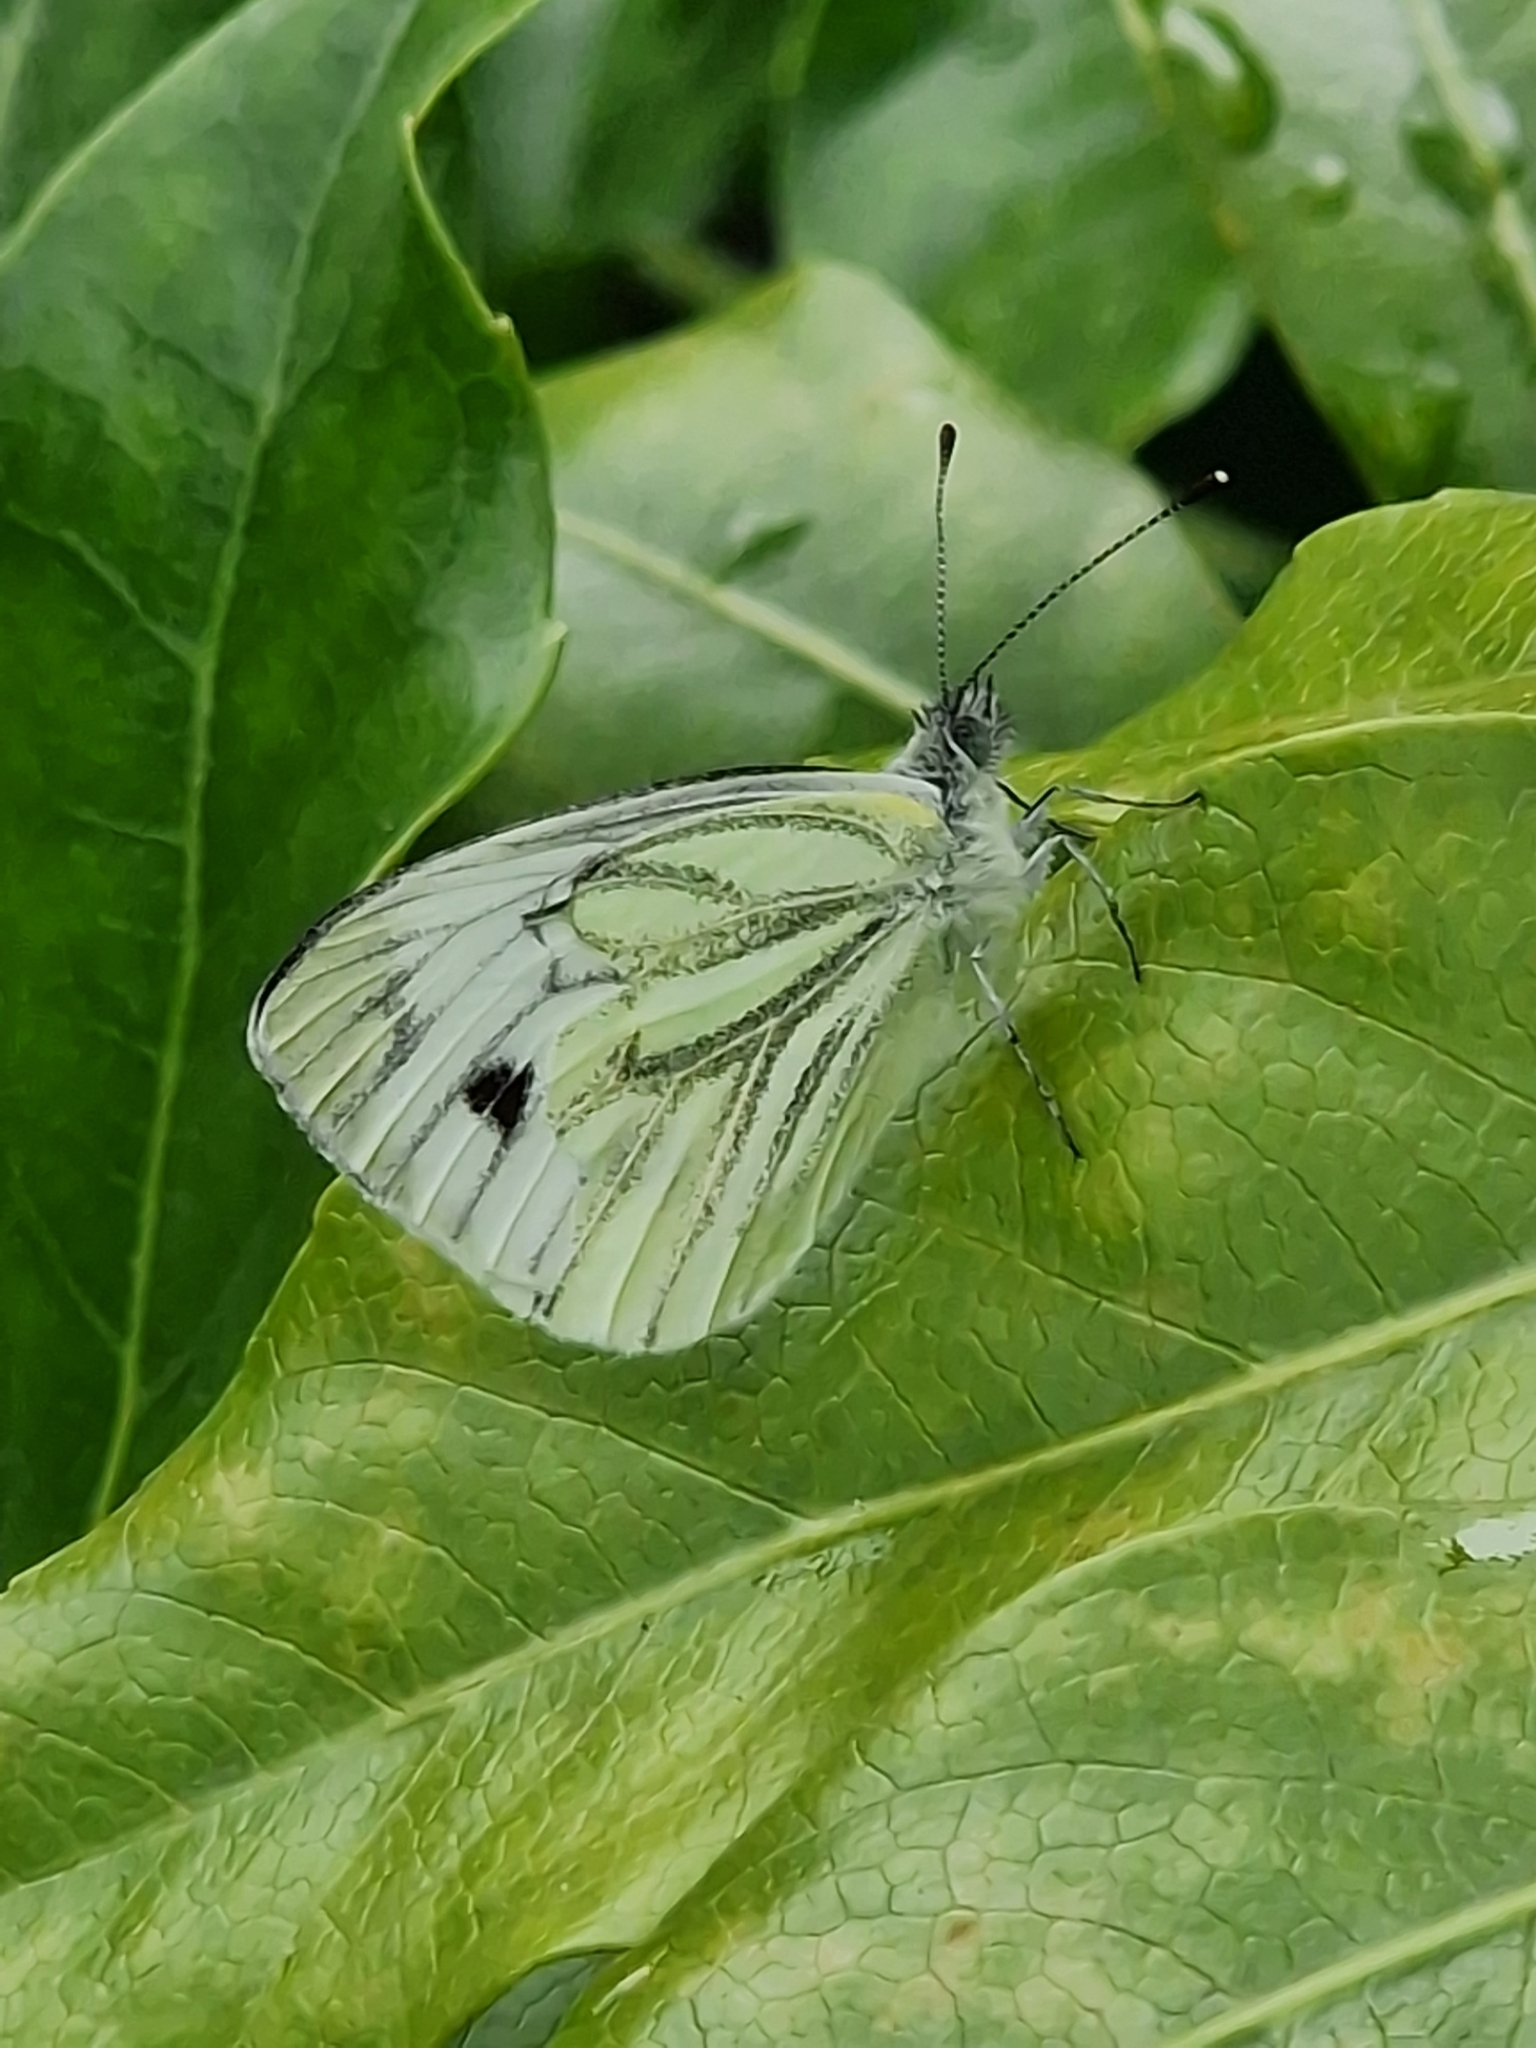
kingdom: Animalia
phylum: Arthropoda
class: Insecta
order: Lepidoptera
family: Pieridae
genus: Pieris
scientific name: Pieris napi
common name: Green-veined white
